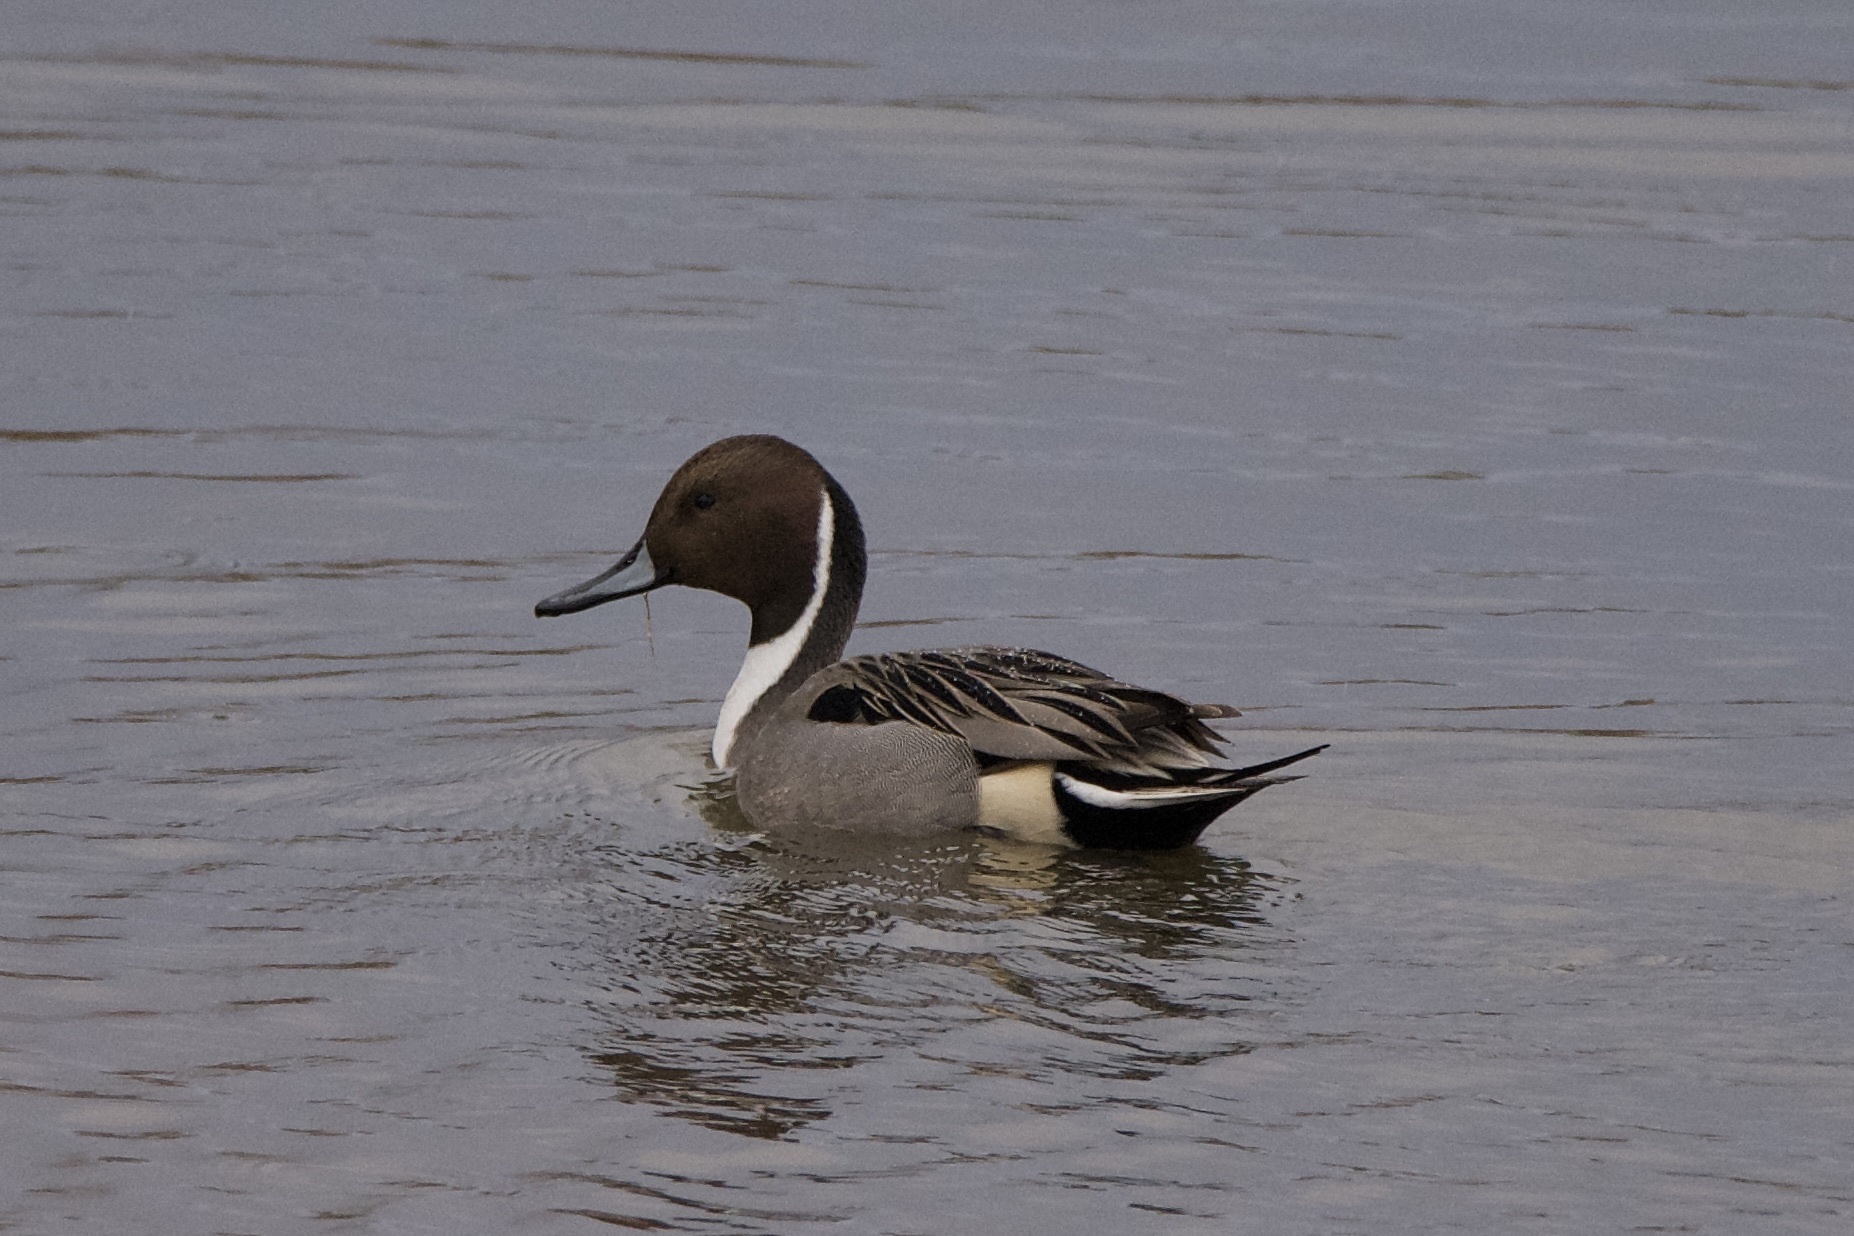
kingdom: Animalia
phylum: Chordata
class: Aves
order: Anseriformes
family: Anatidae
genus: Anas
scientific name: Anas acuta
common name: Northern pintail
